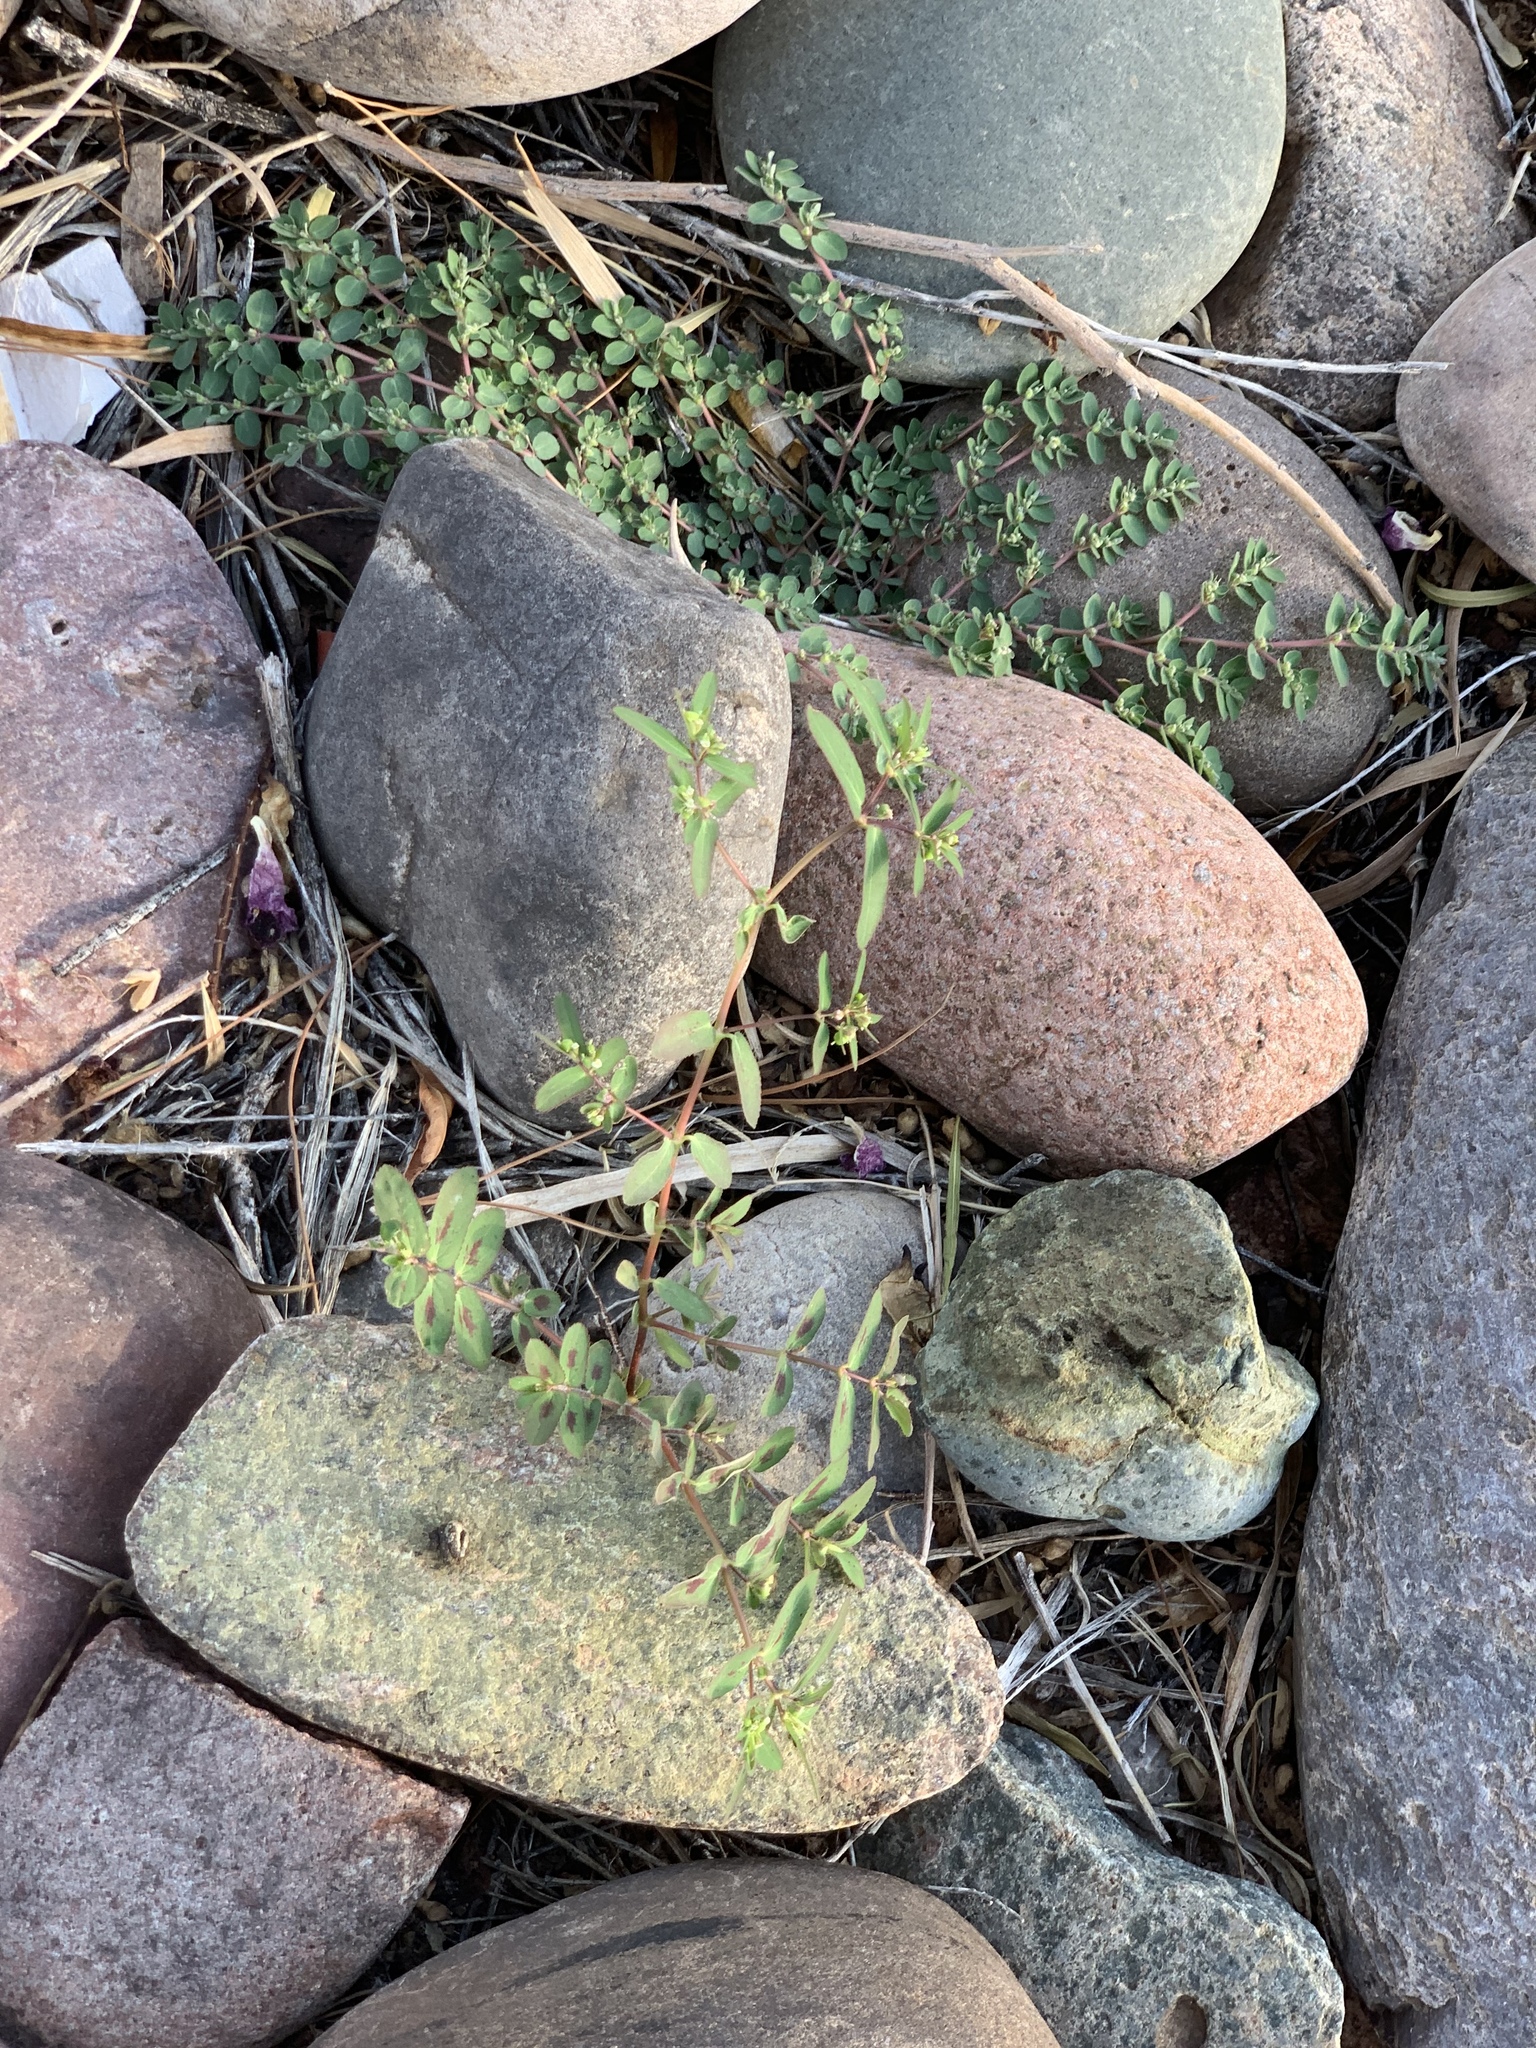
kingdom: Plantae
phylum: Tracheophyta
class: Magnoliopsida
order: Malpighiales
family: Euphorbiaceae
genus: Euphorbia
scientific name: Euphorbia prostrata
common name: Prostrate sandmat
